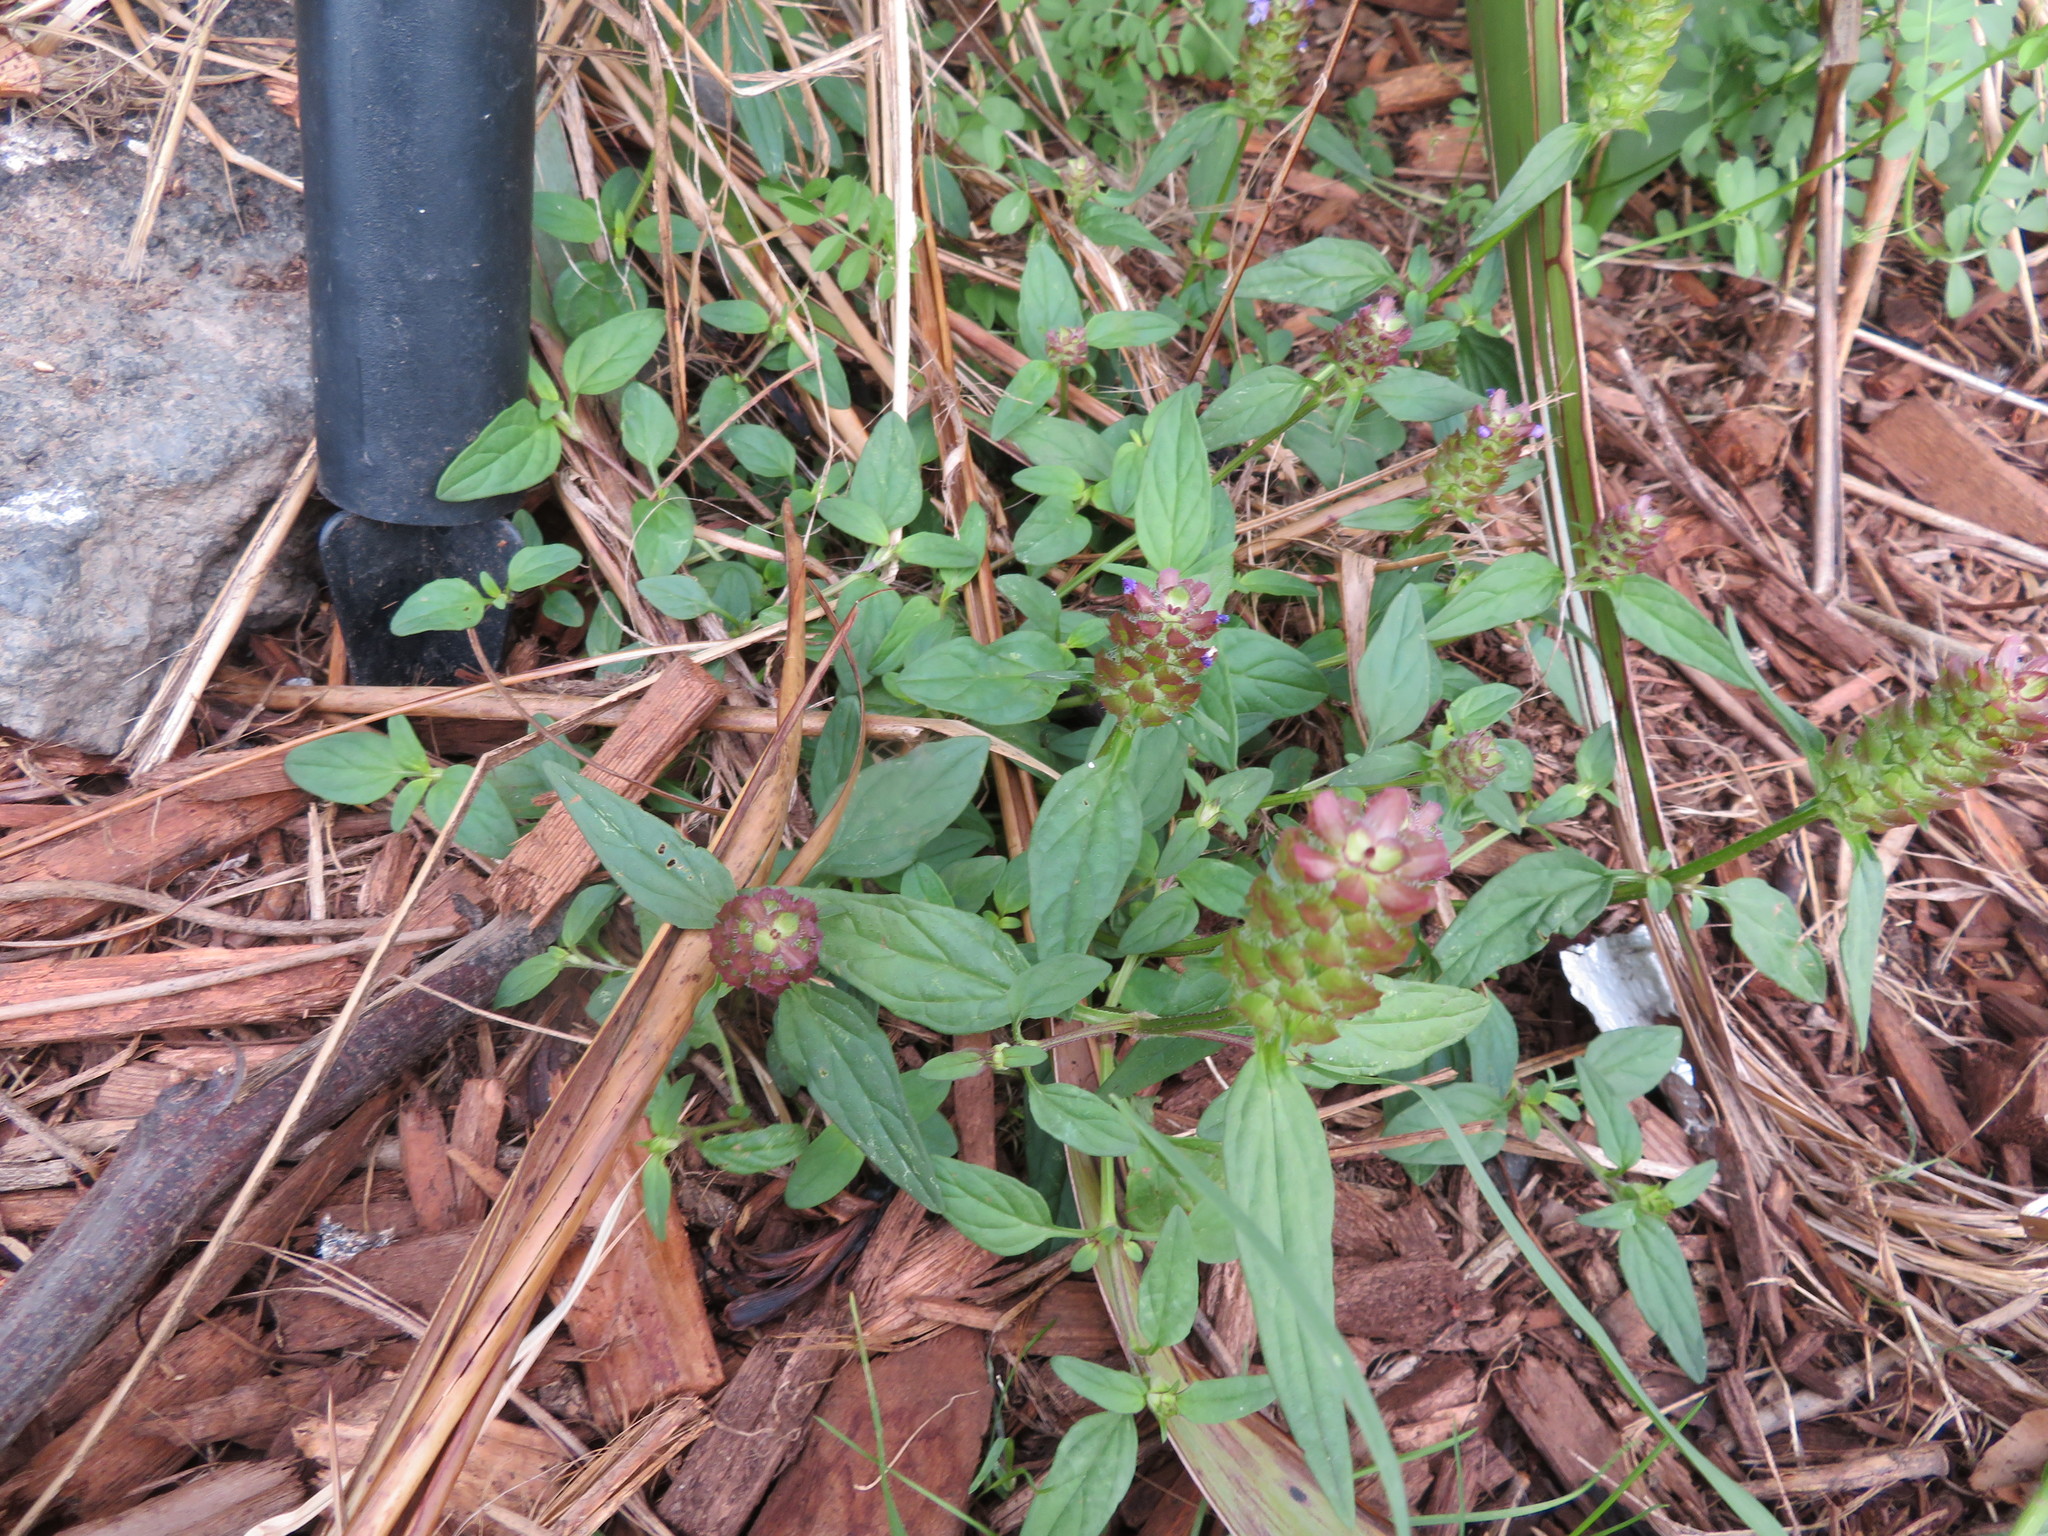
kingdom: Plantae
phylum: Tracheophyta
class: Magnoliopsida
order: Lamiales
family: Lamiaceae
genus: Prunella
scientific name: Prunella vulgaris
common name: Heal-all
